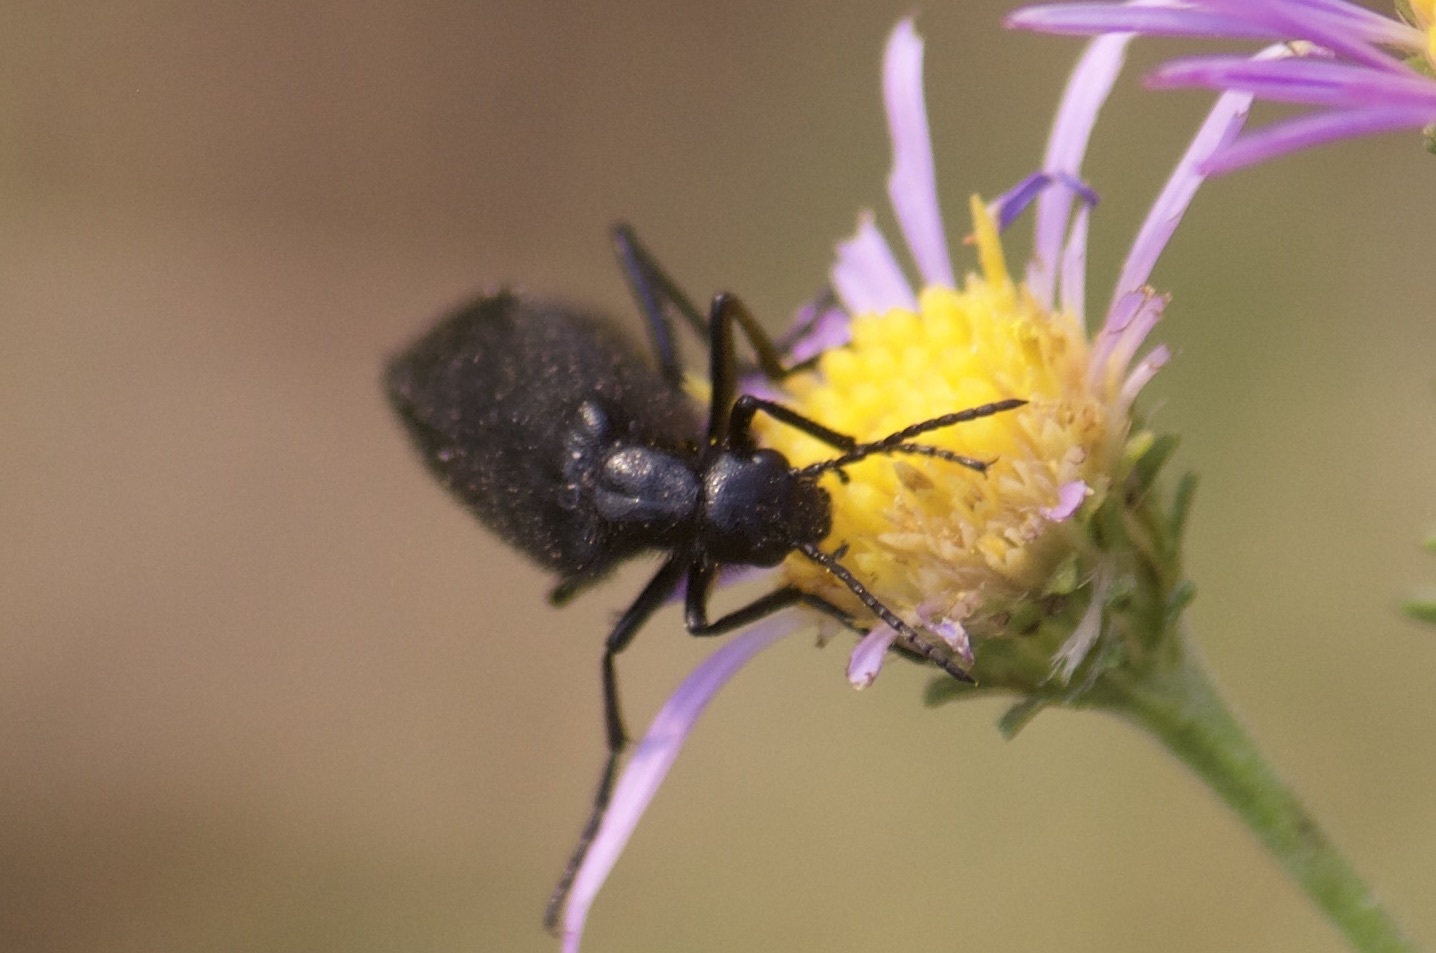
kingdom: Animalia
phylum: Arthropoda
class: Insecta
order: Coleoptera
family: Meloidae
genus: Epicauta
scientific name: Epicauta puncticollis
